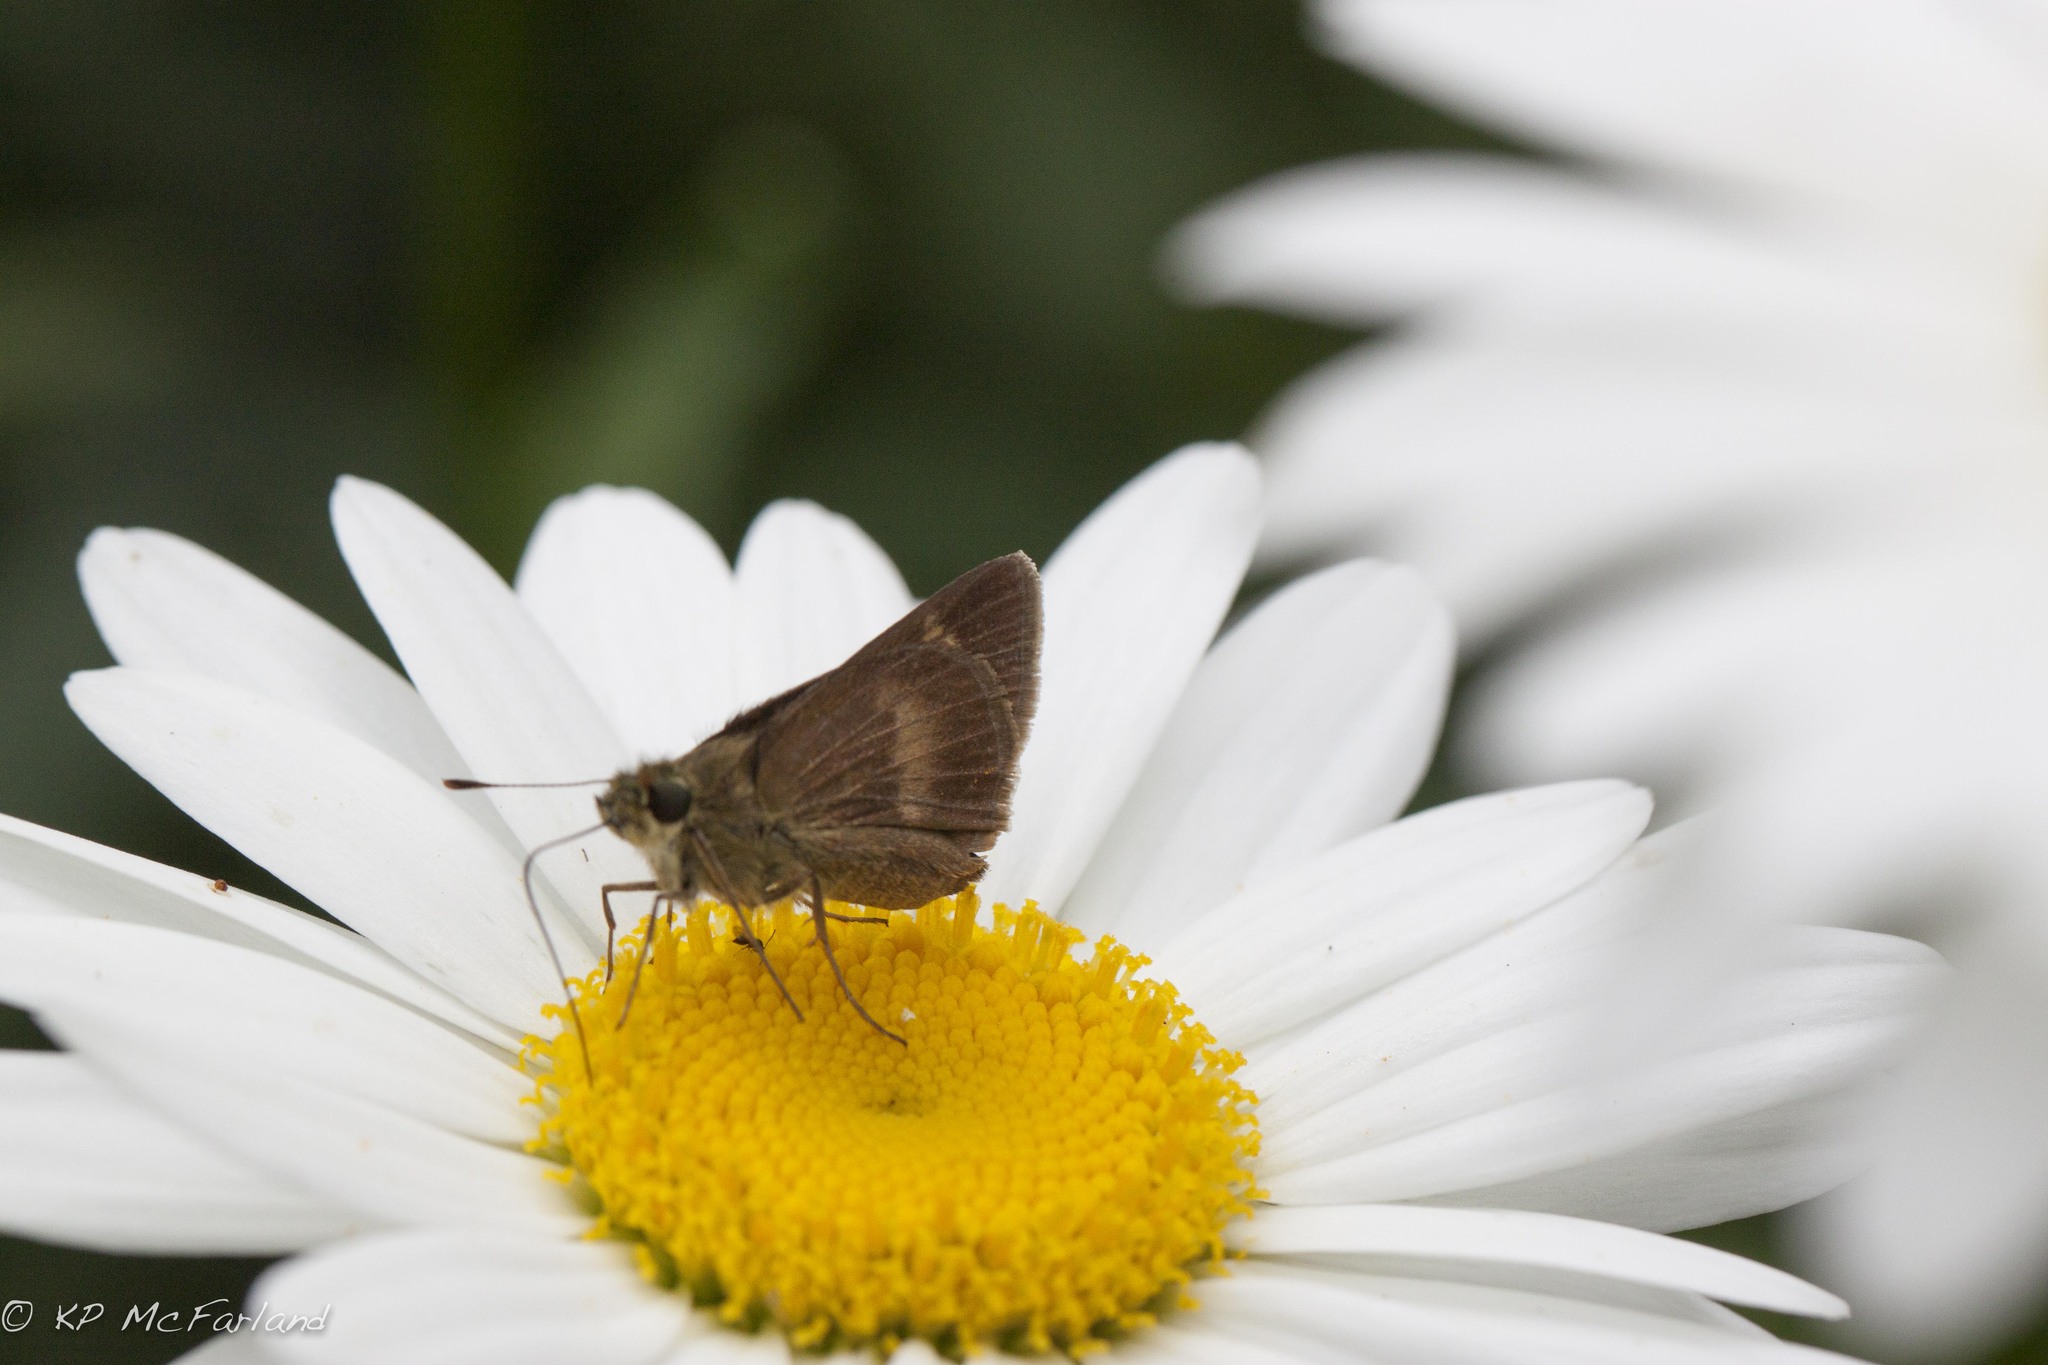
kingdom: Animalia
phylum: Arthropoda
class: Insecta
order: Lepidoptera
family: Hesperiidae
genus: Polites
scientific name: Polites egeremet
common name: Northern broken-dash
